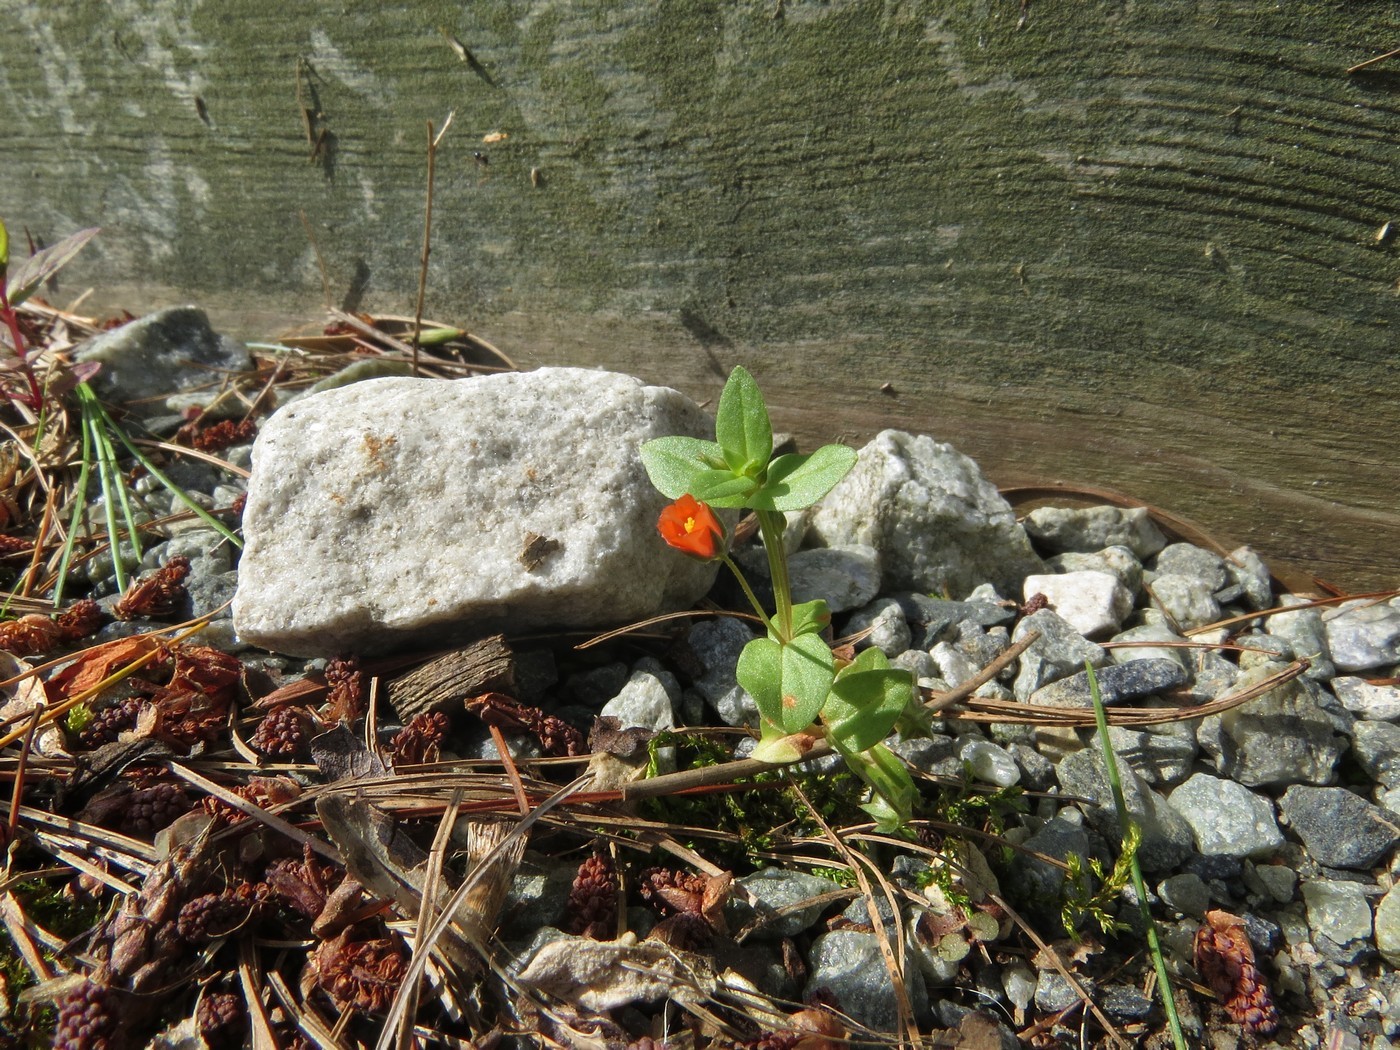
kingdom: Plantae
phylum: Tracheophyta
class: Magnoliopsida
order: Ericales
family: Primulaceae
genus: Lysimachia
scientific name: Lysimachia arvensis
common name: Scarlet pimpernel
